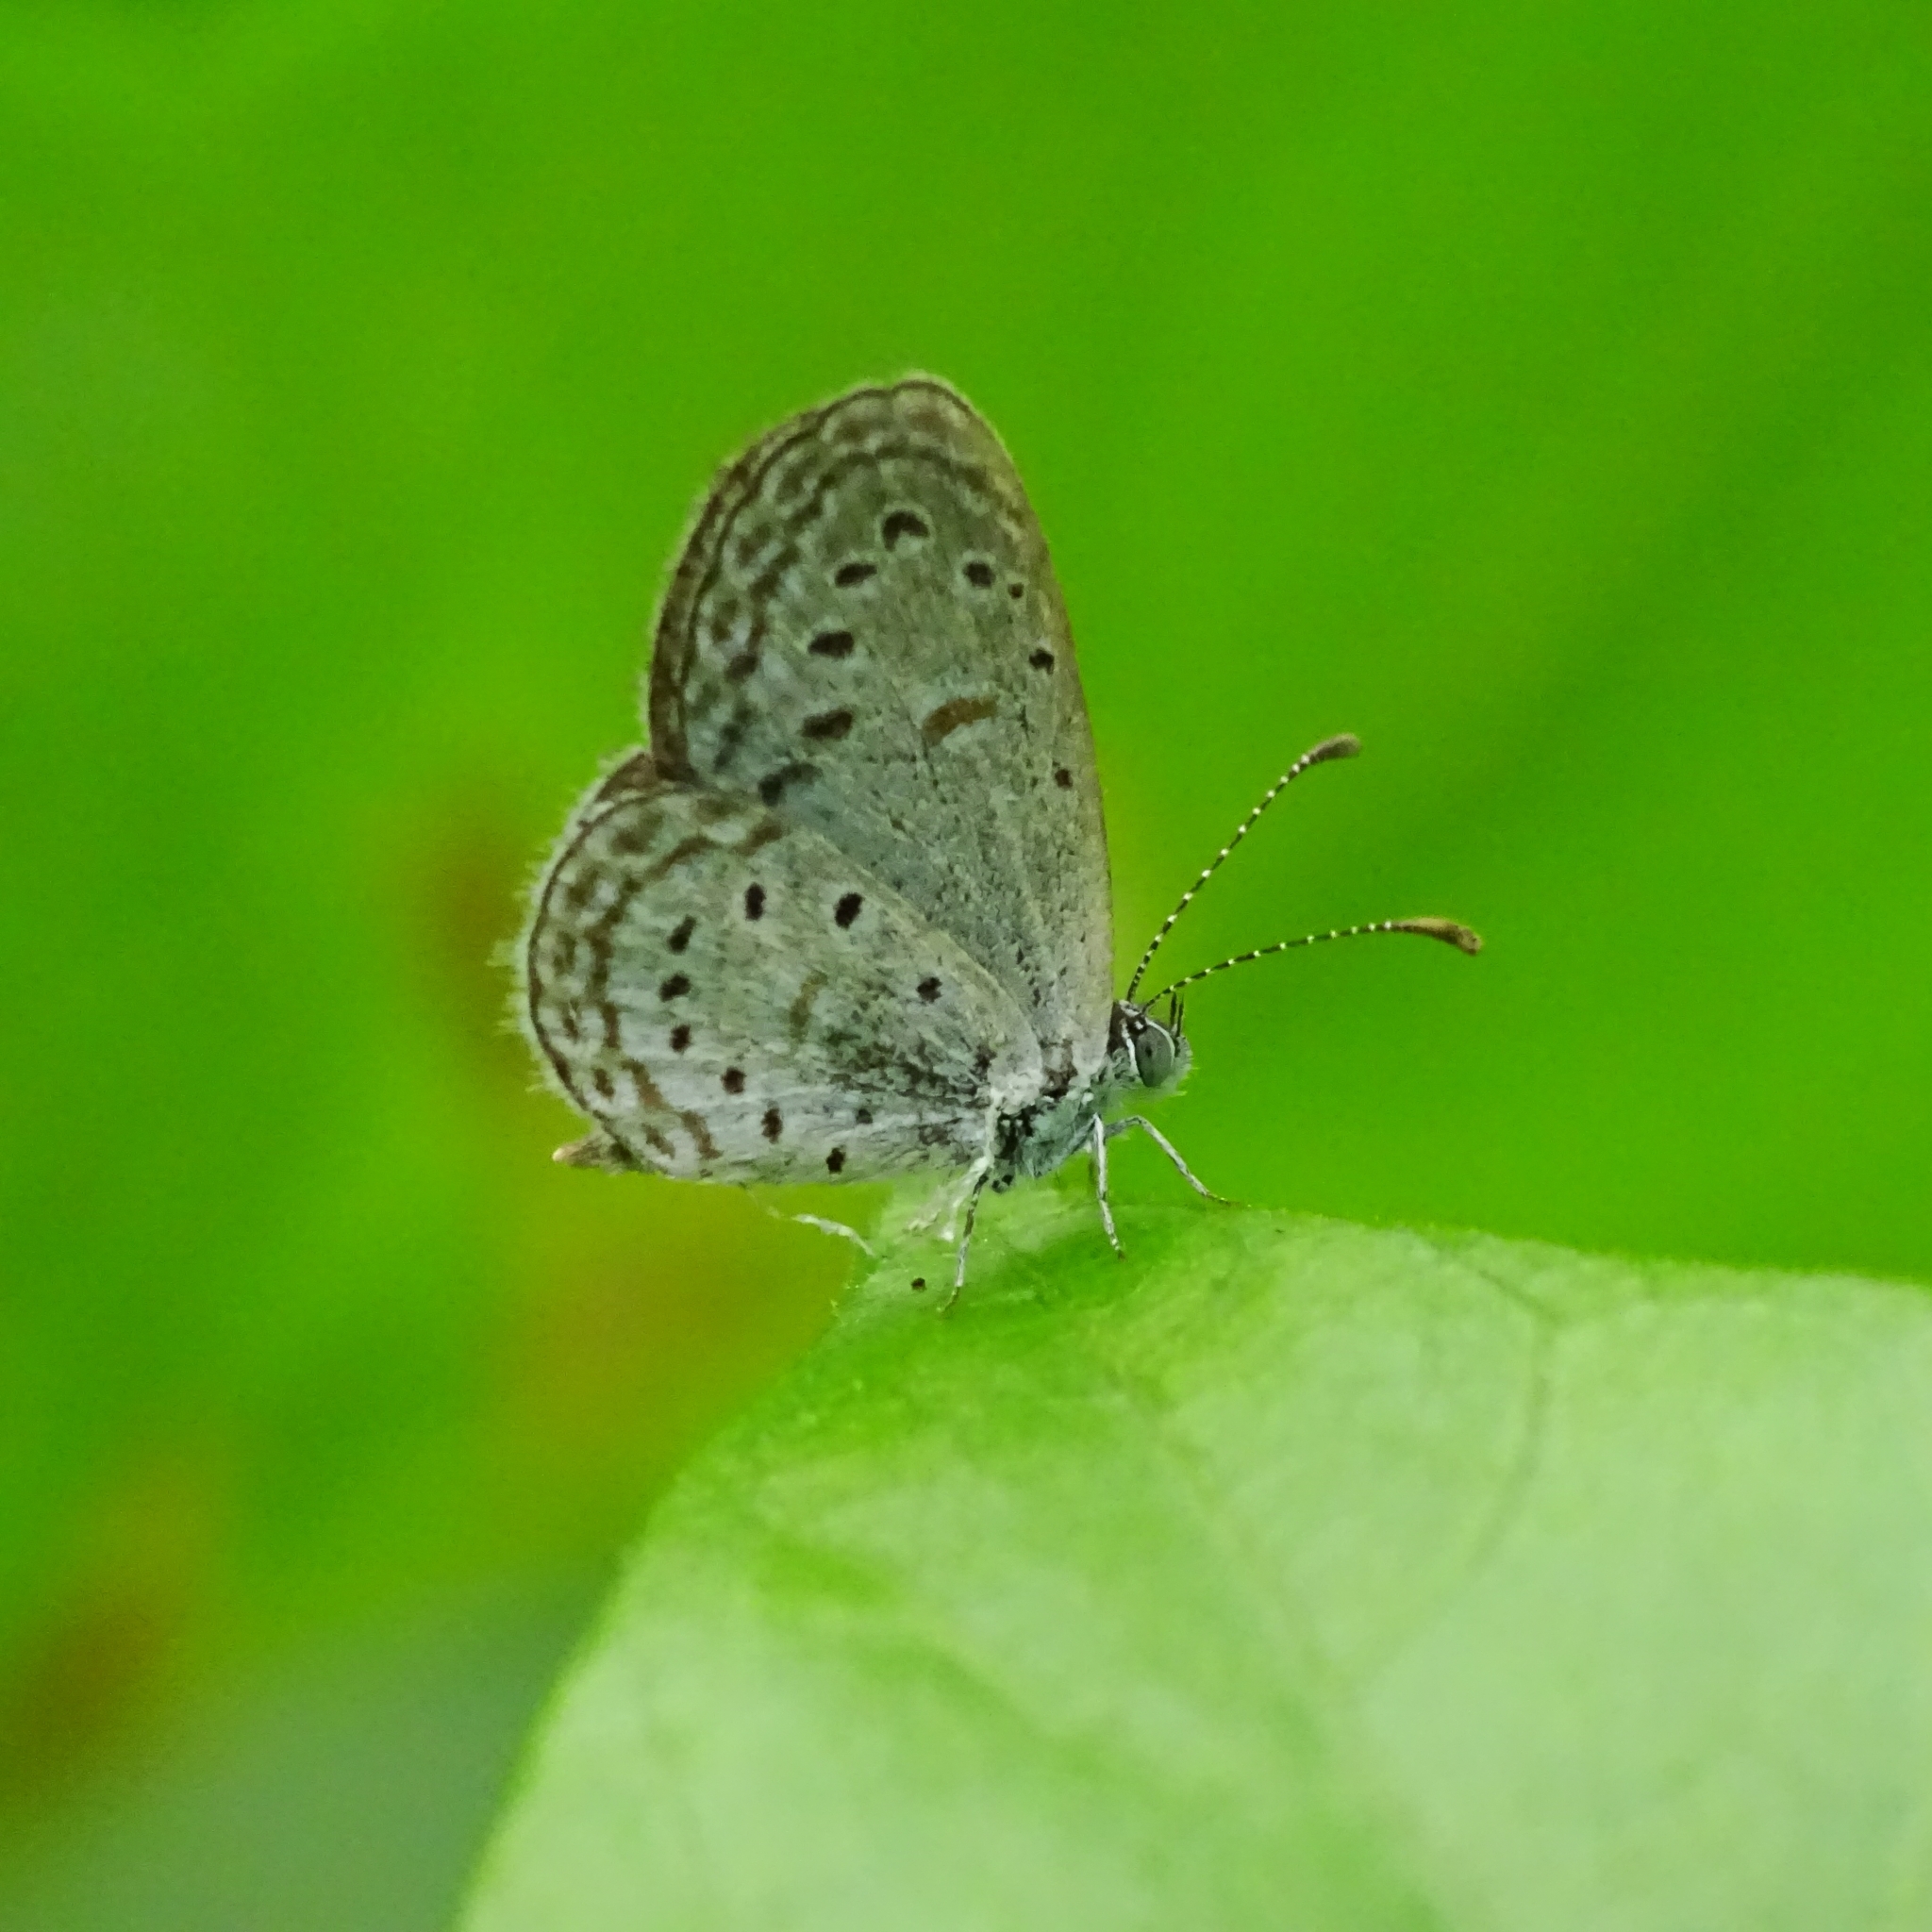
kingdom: Animalia
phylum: Arthropoda
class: Insecta
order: Lepidoptera
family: Lycaenidae
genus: Zizula
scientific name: Zizula hylax
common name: Gaika blue
